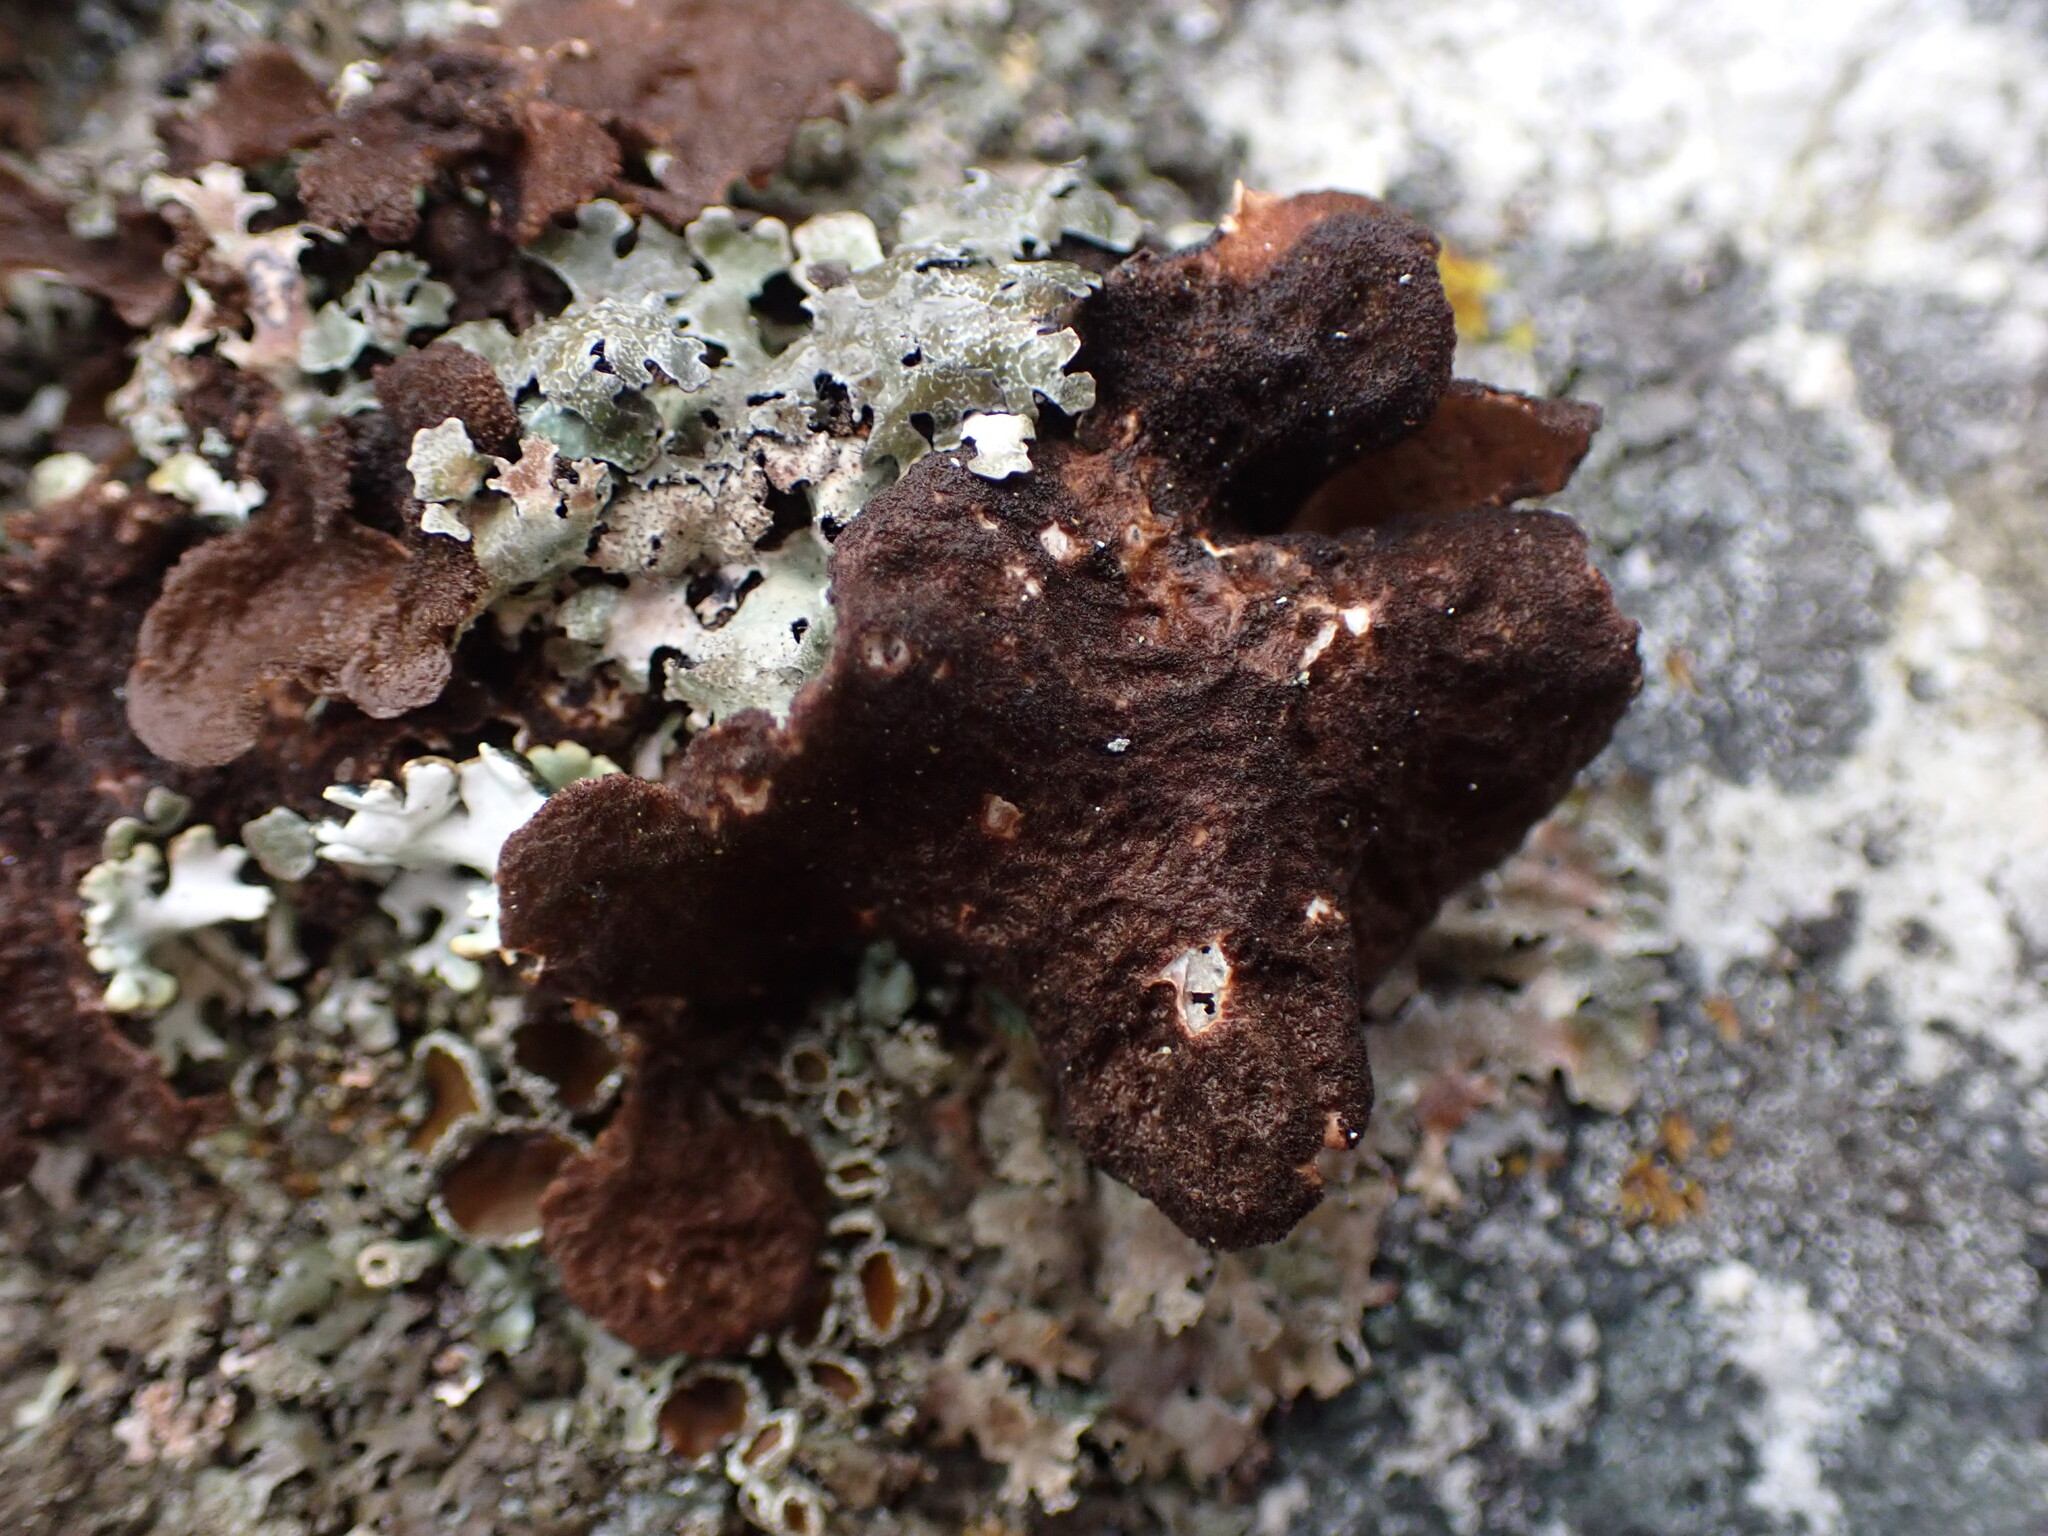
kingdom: Fungi
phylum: Ascomycota
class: Lecanoromycetes
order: Peltigerales
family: Lobariaceae
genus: Sticta
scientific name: Sticta
